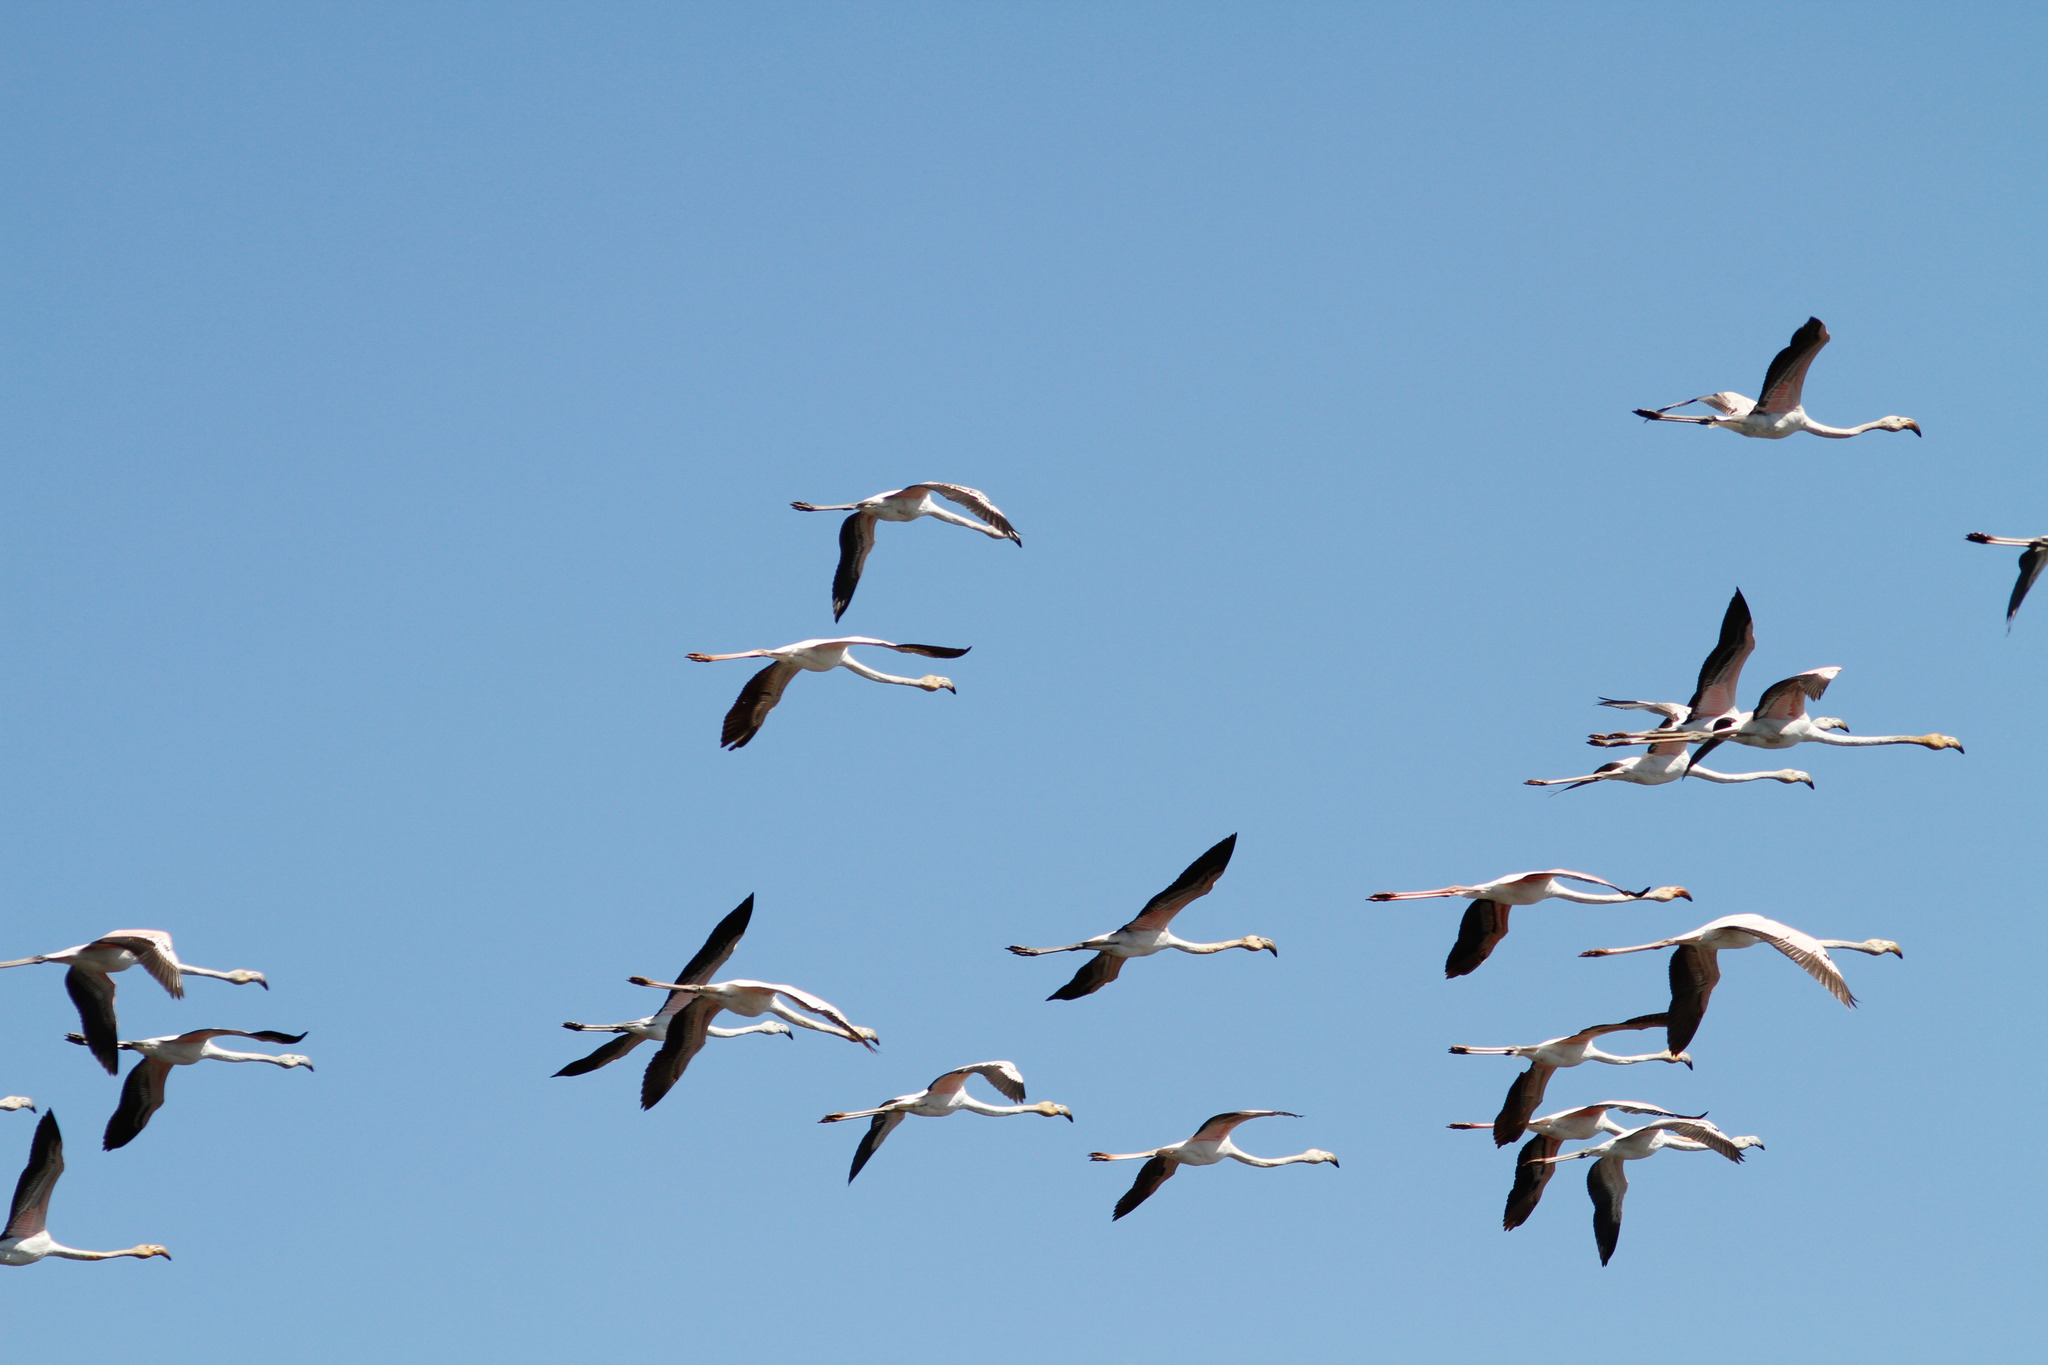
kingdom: Animalia
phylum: Chordata
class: Aves
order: Phoenicopteriformes
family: Phoenicopteridae
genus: Phoenicopterus
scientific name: Phoenicopterus roseus
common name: Greater flamingo
